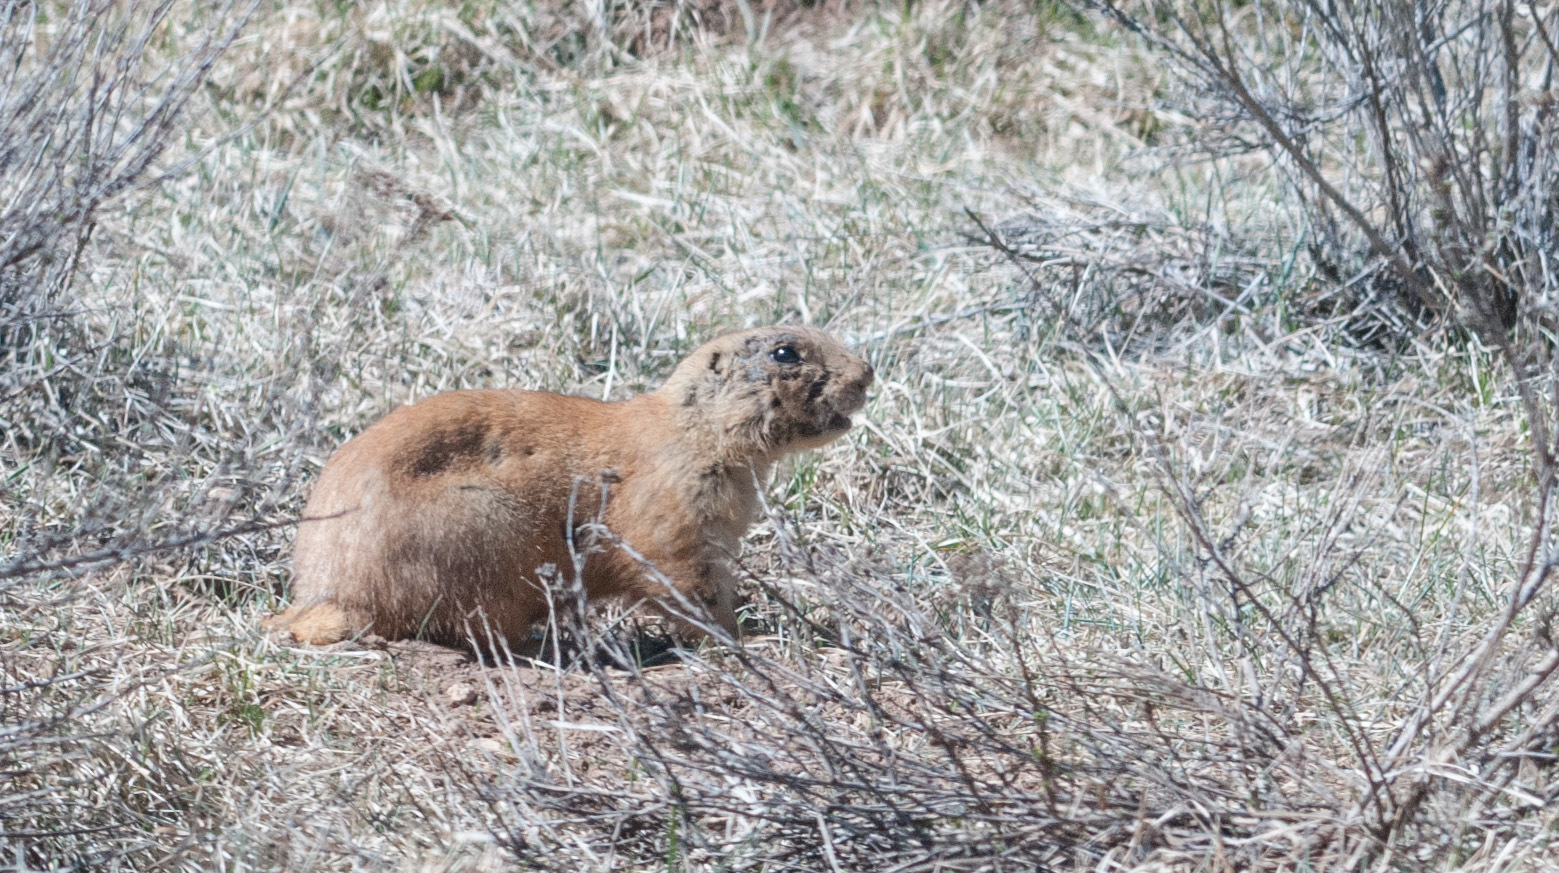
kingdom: Animalia
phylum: Chordata
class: Mammalia
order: Rodentia
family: Sciuridae
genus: Cynomys
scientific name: Cynomys parvidens
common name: Utah prairie dog
